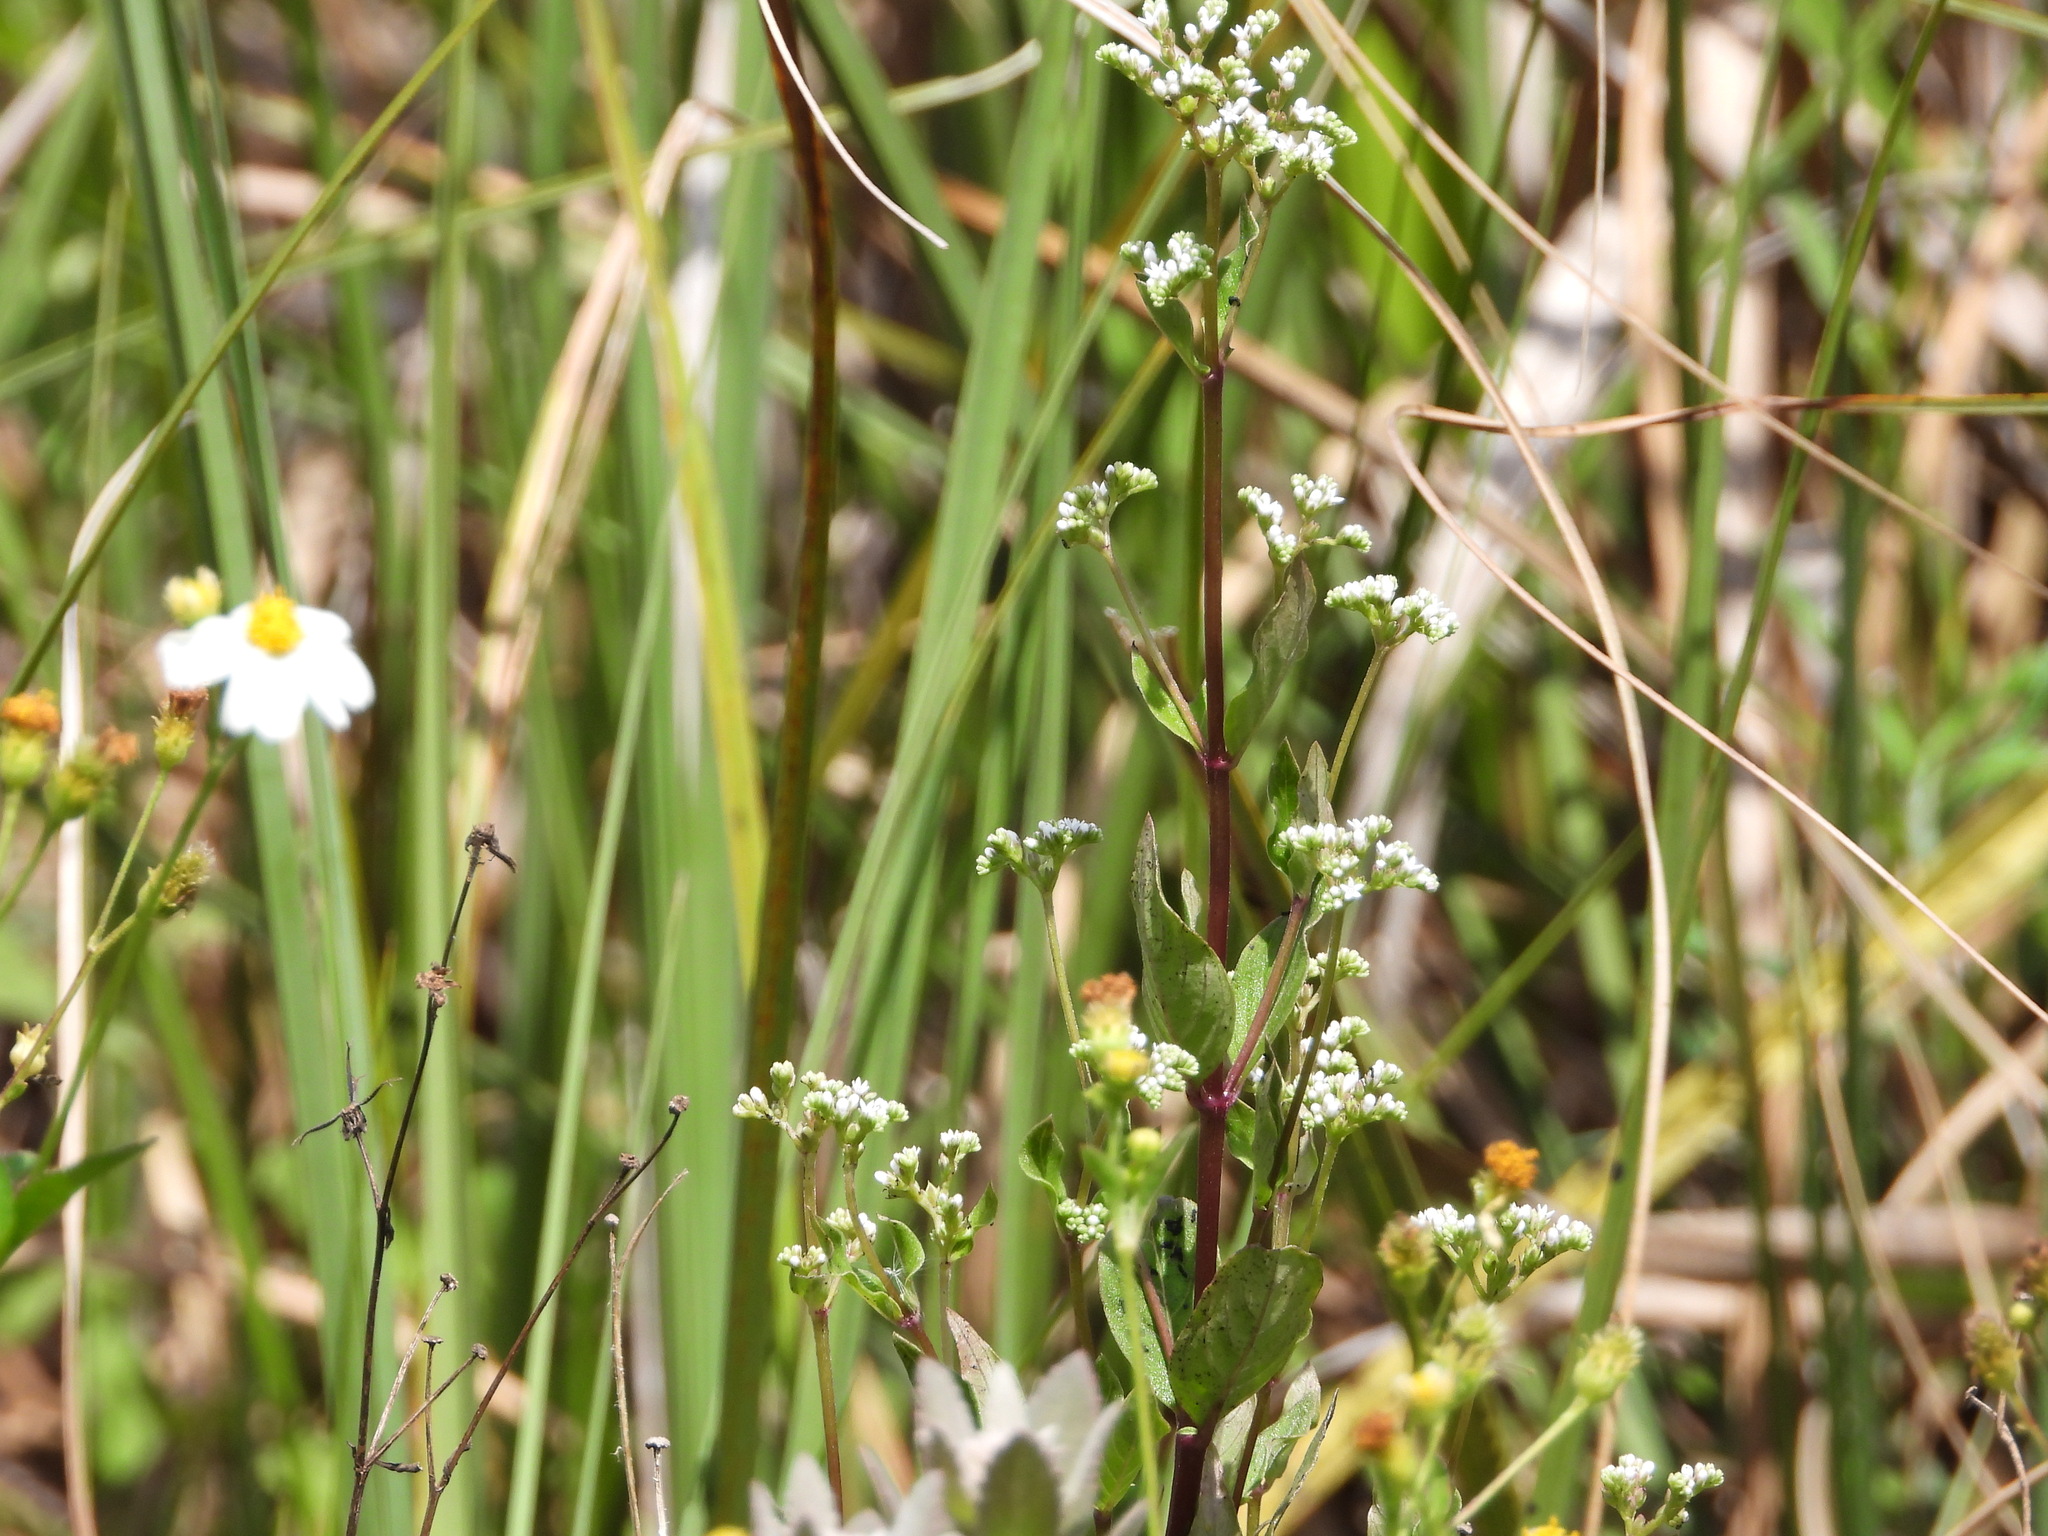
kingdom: Plantae
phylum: Tracheophyta
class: Magnoliopsida
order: Gentianales
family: Loganiaceae
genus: Mitreola
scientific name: Mitreola petiolata
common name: Lax hornpod
